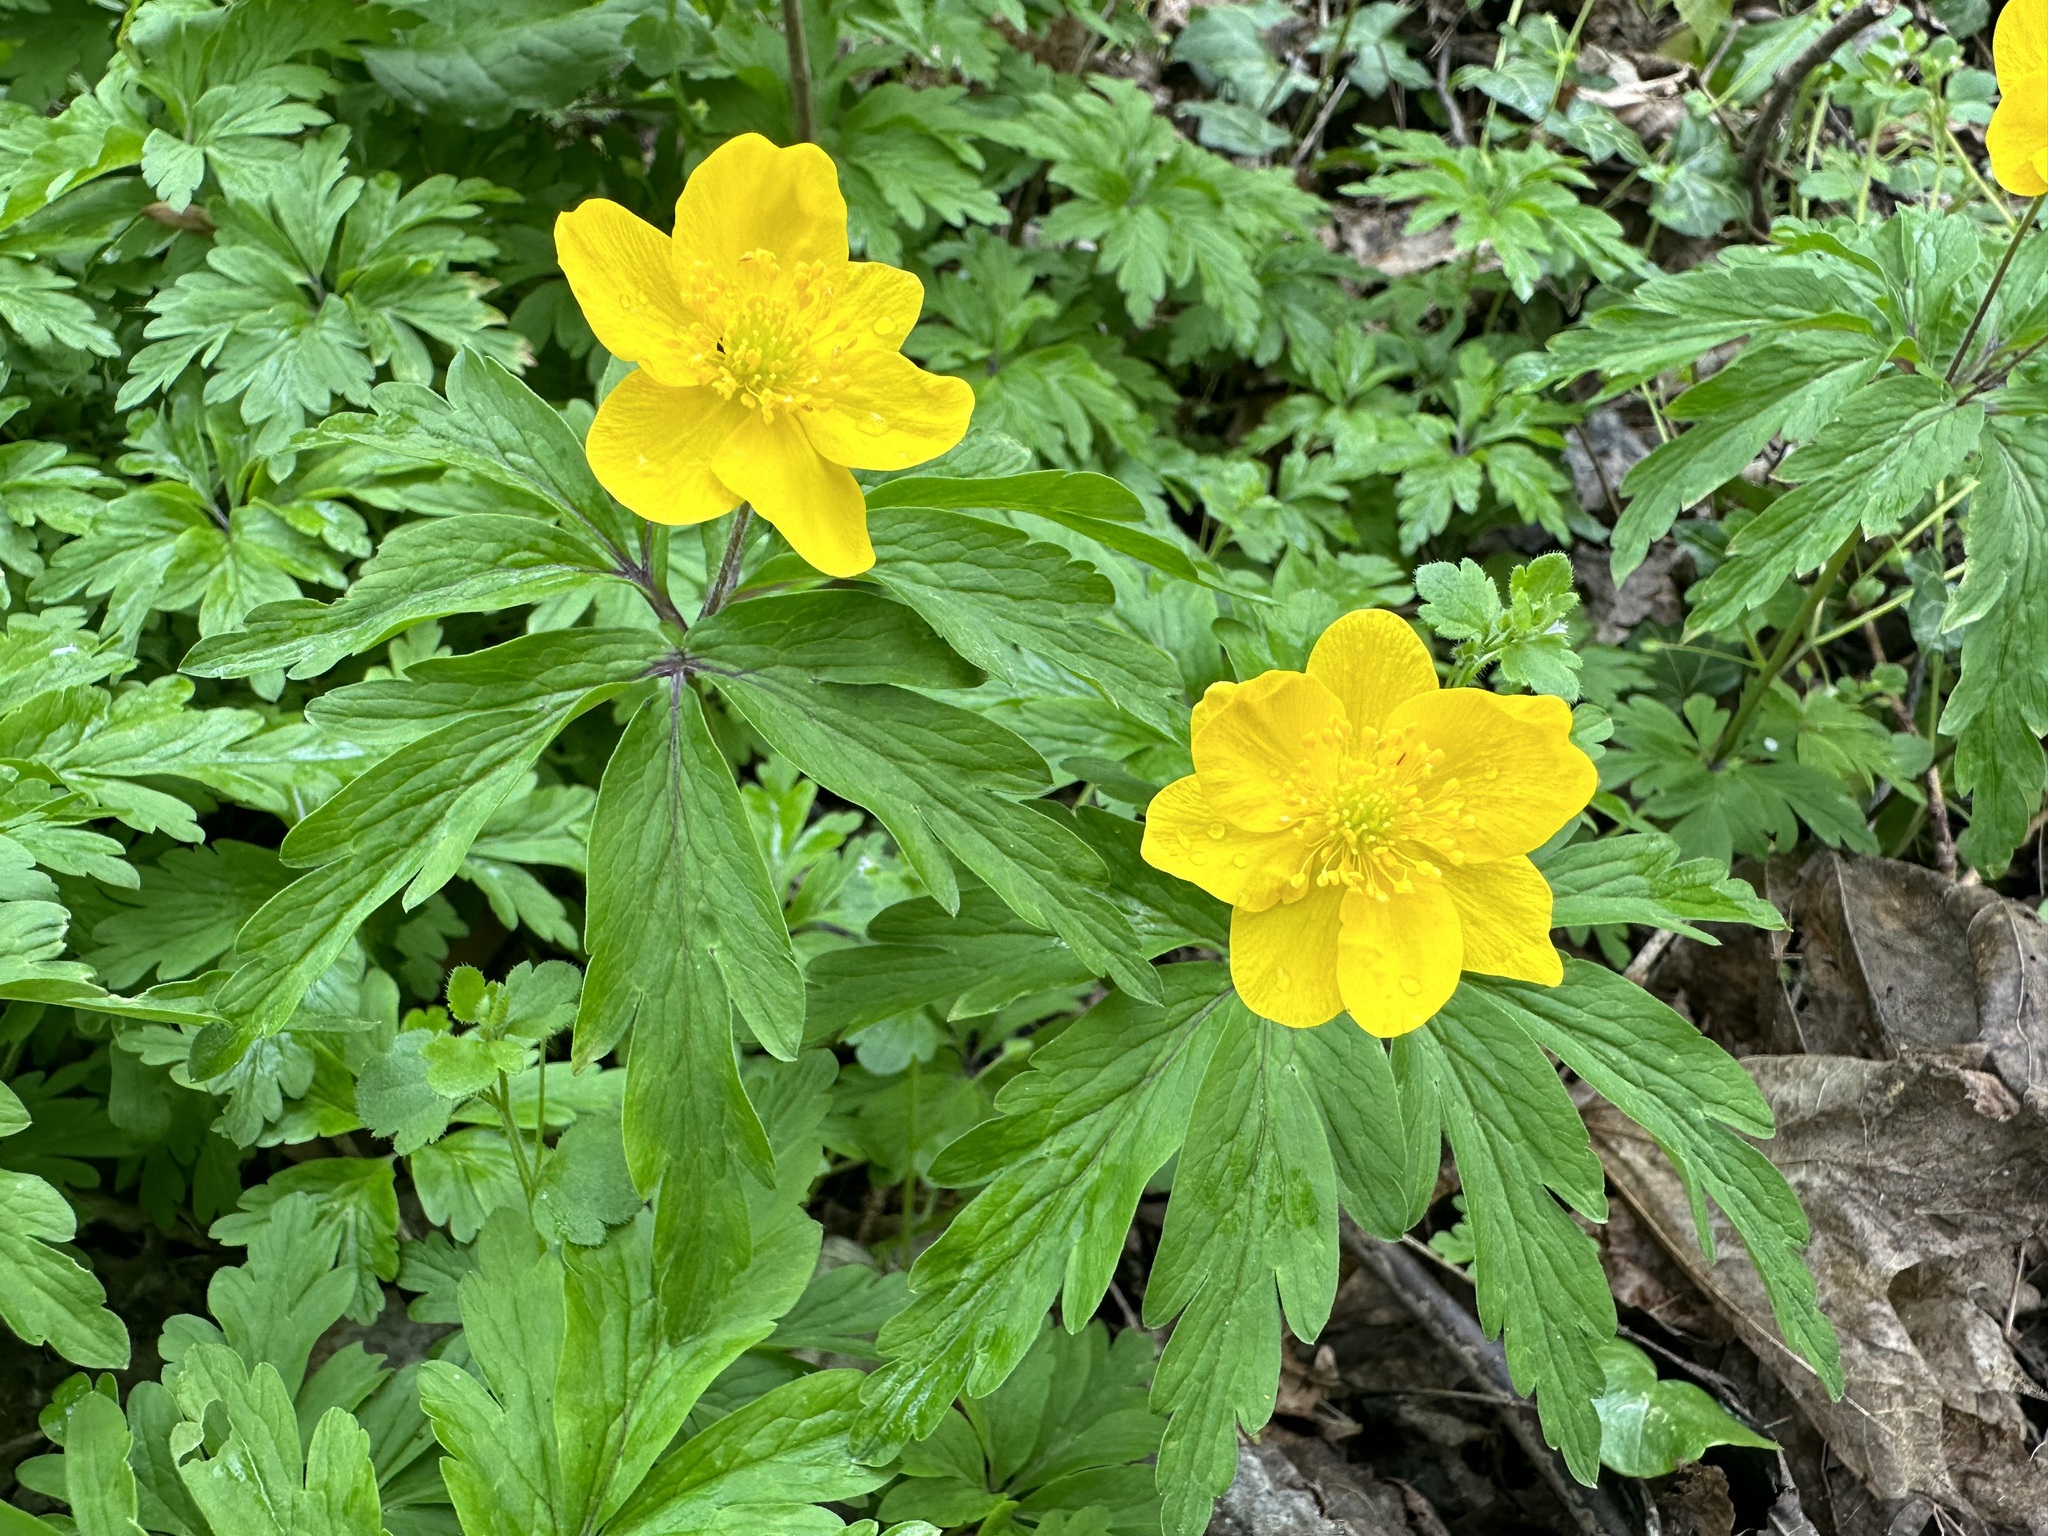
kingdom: Plantae
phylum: Tracheophyta
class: Magnoliopsida
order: Ranunculales
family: Ranunculaceae
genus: Anemone
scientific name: Anemone ranunculoides
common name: Yellow anemone
